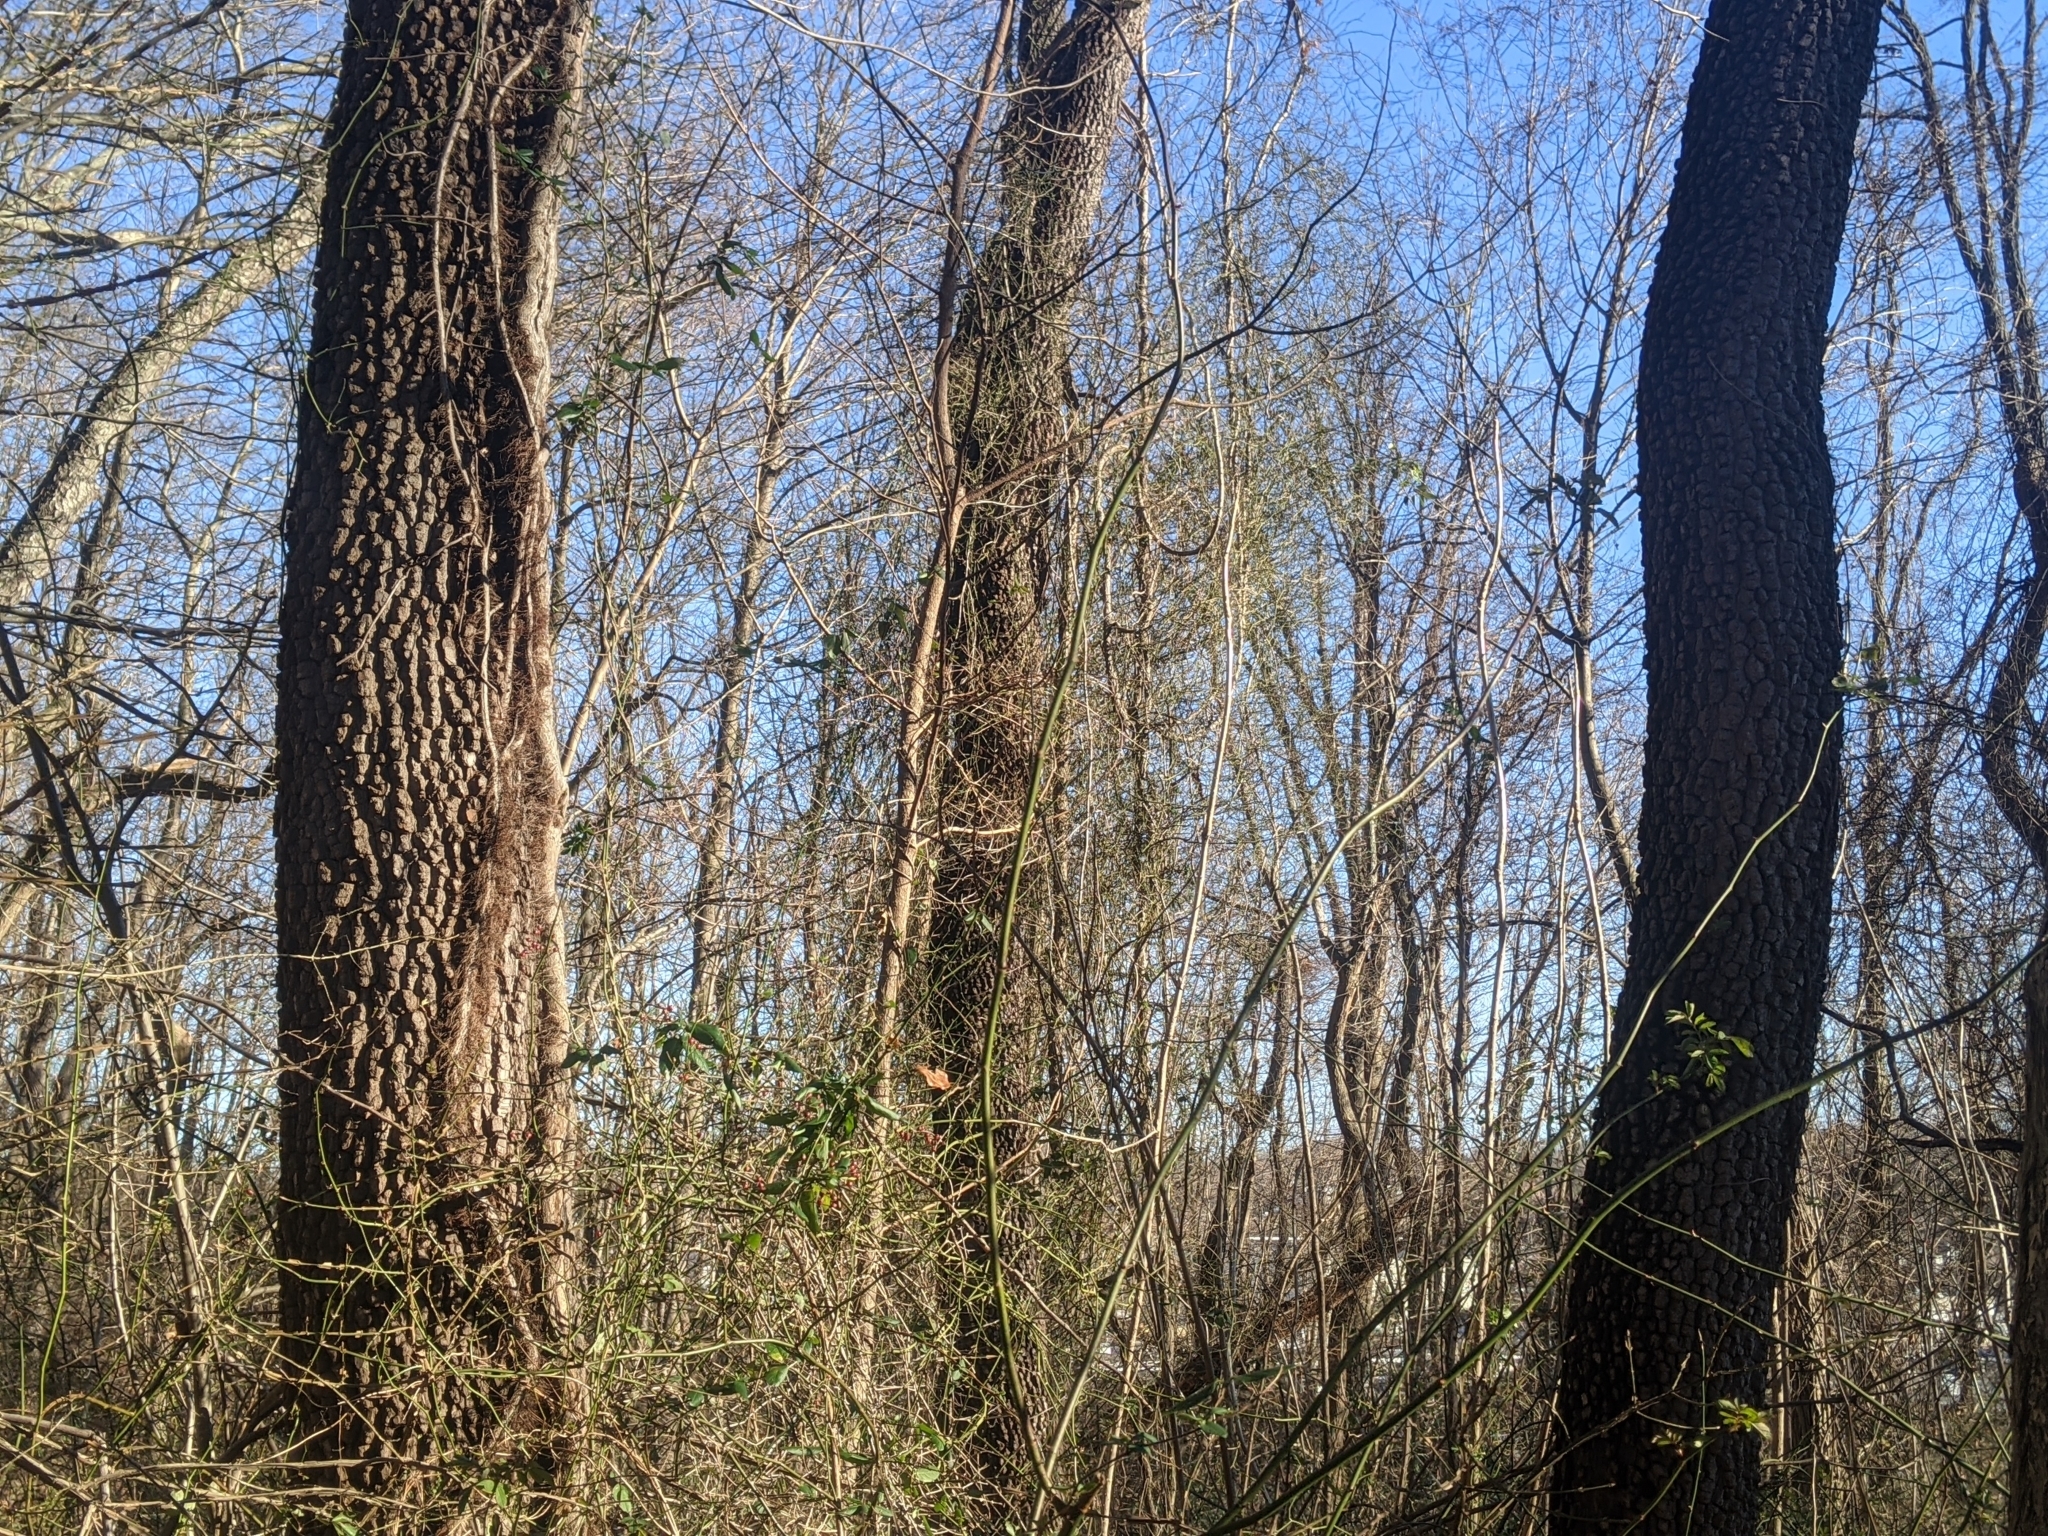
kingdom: Plantae
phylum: Tracheophyta
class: Magnoliopsida
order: Ericales
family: Ebenaceae
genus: Diospyros
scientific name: Diospyros virginiana
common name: Persimmon
